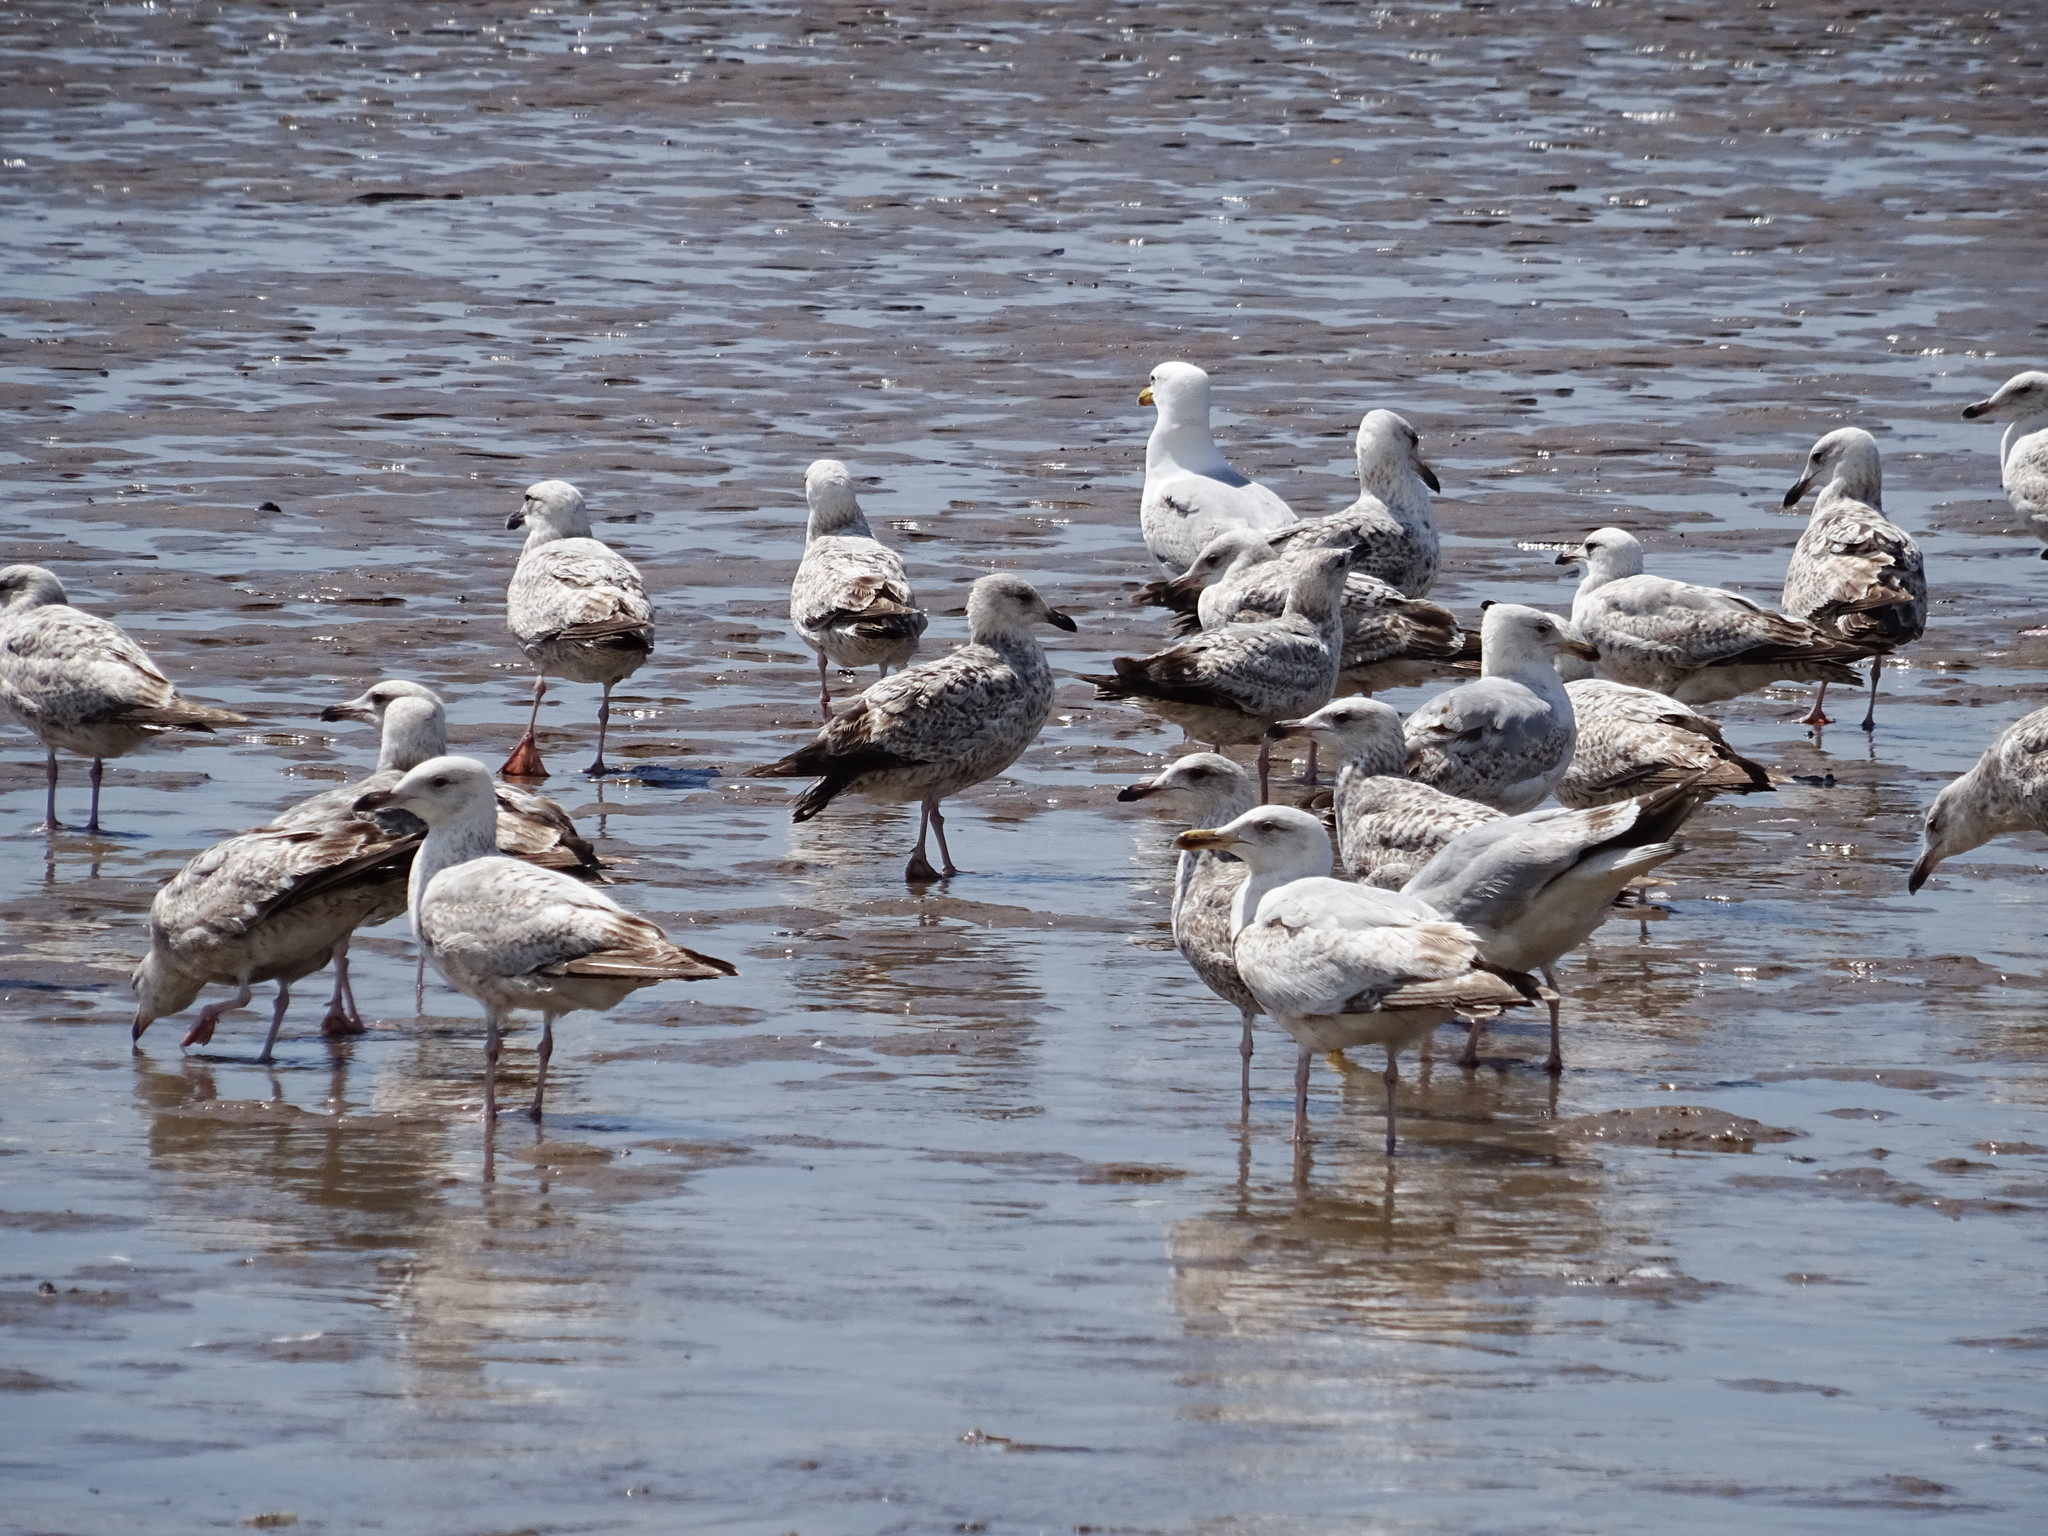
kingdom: Animalia
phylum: Chordata
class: Aves
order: Charadriiformes
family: Laridae
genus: Larus
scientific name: Larus argentatus
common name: Herring gull
